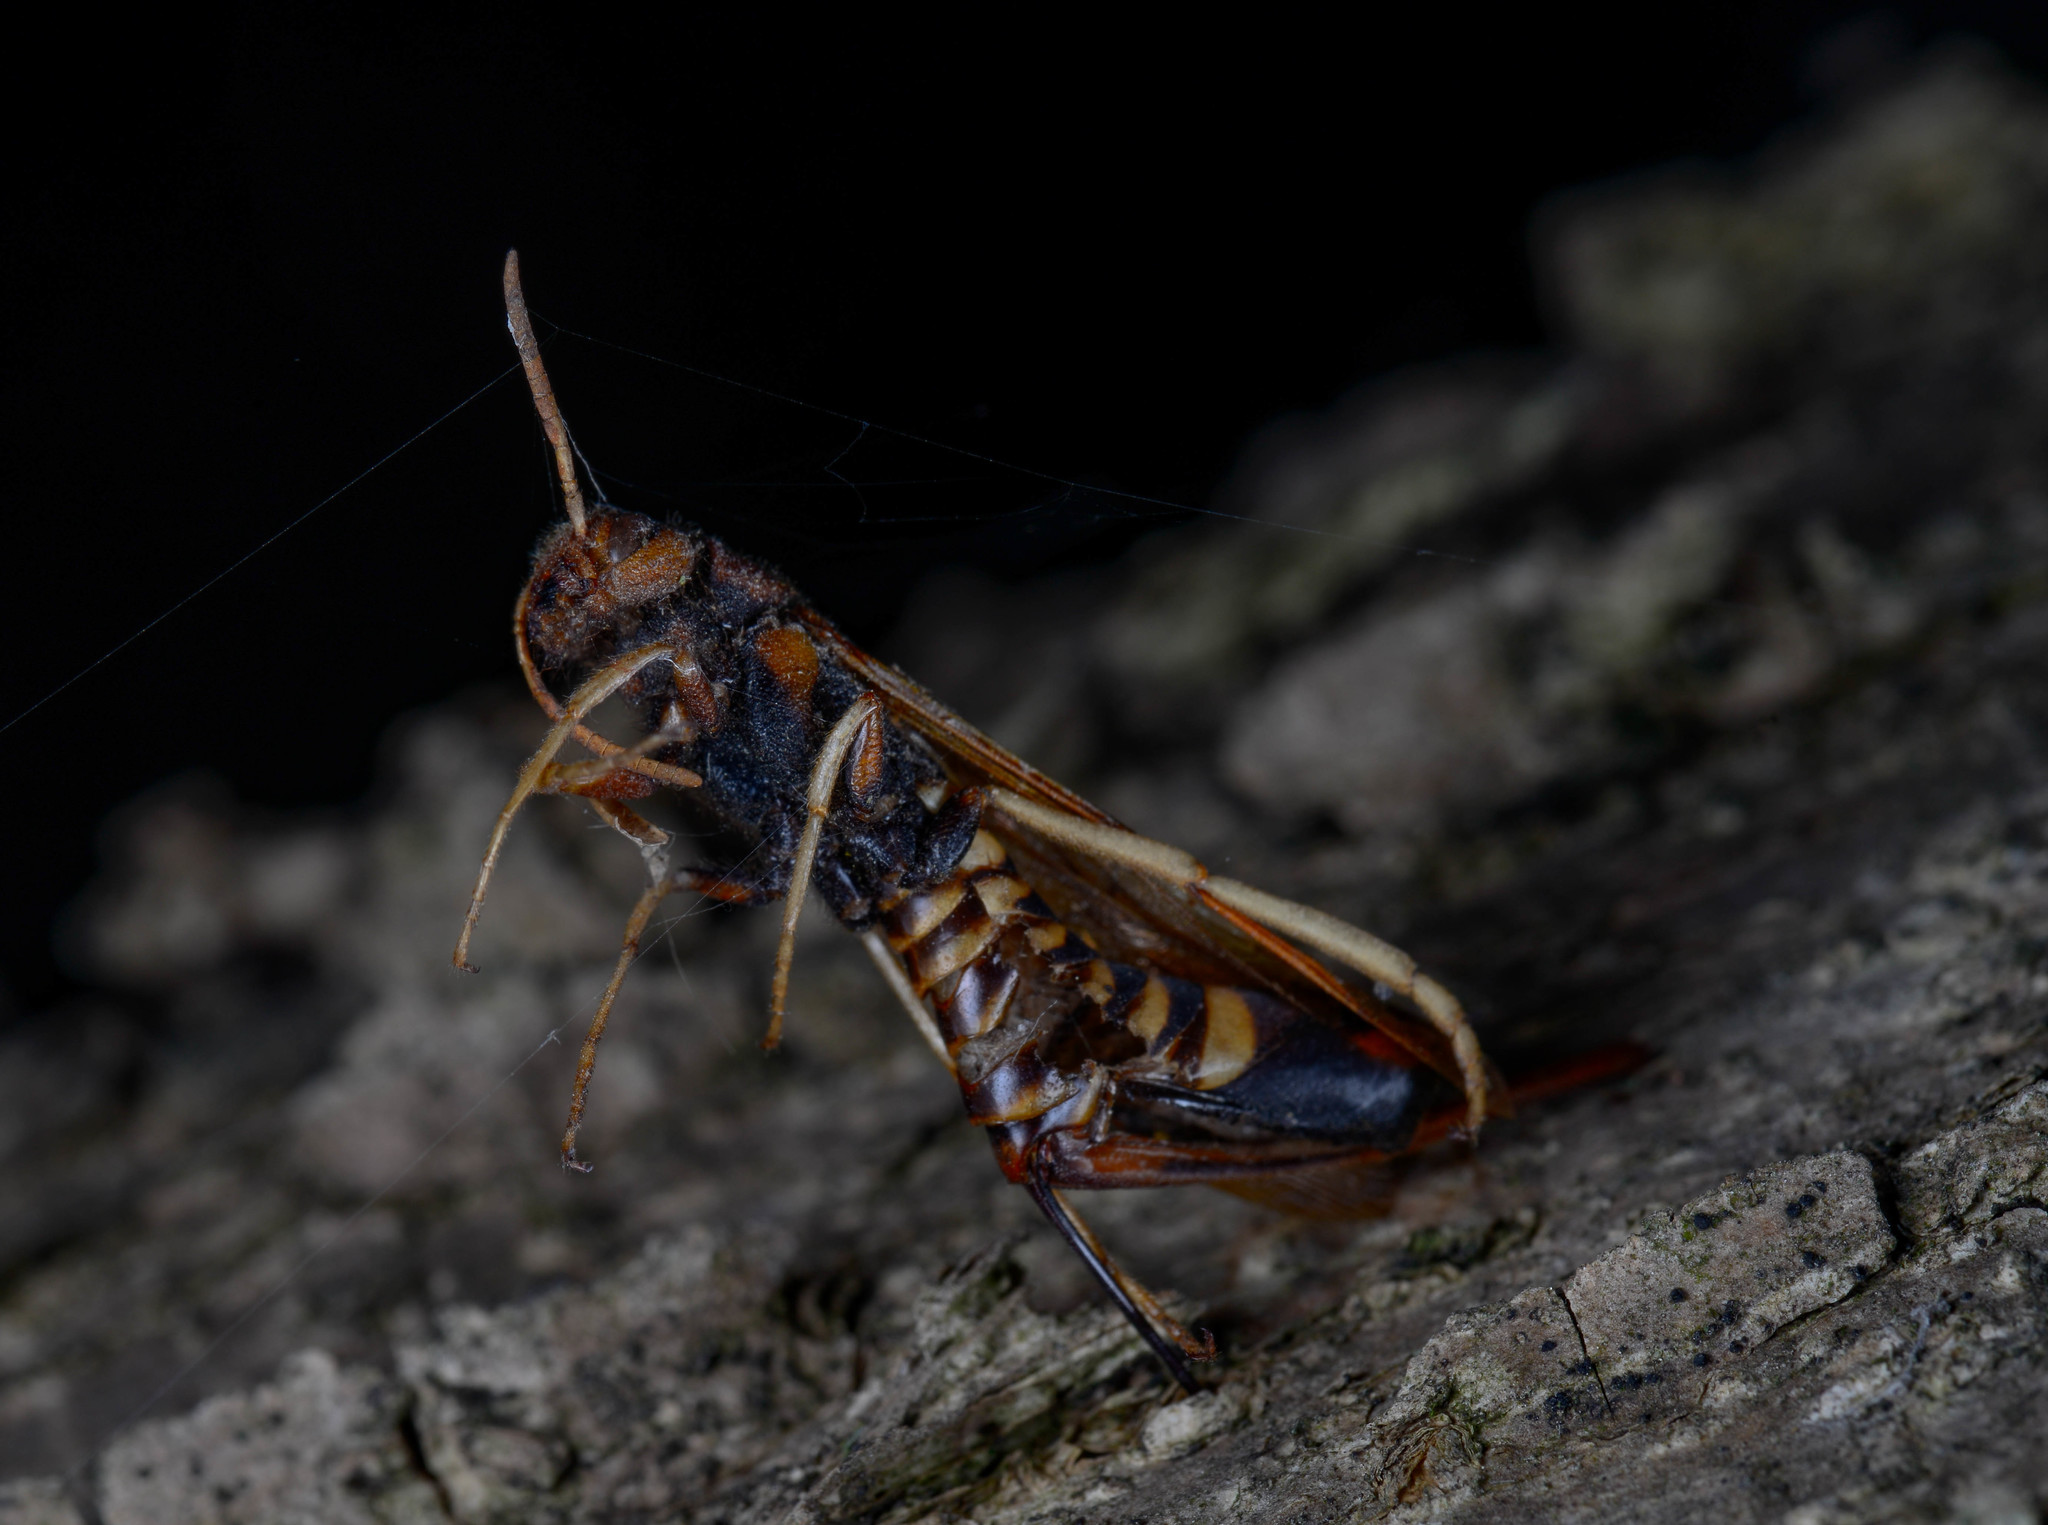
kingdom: Animalia
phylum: Arthropoda
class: Insecta
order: Hymenoptera
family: Siricidae
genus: Tremex
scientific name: Tremex columba
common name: Wasp
